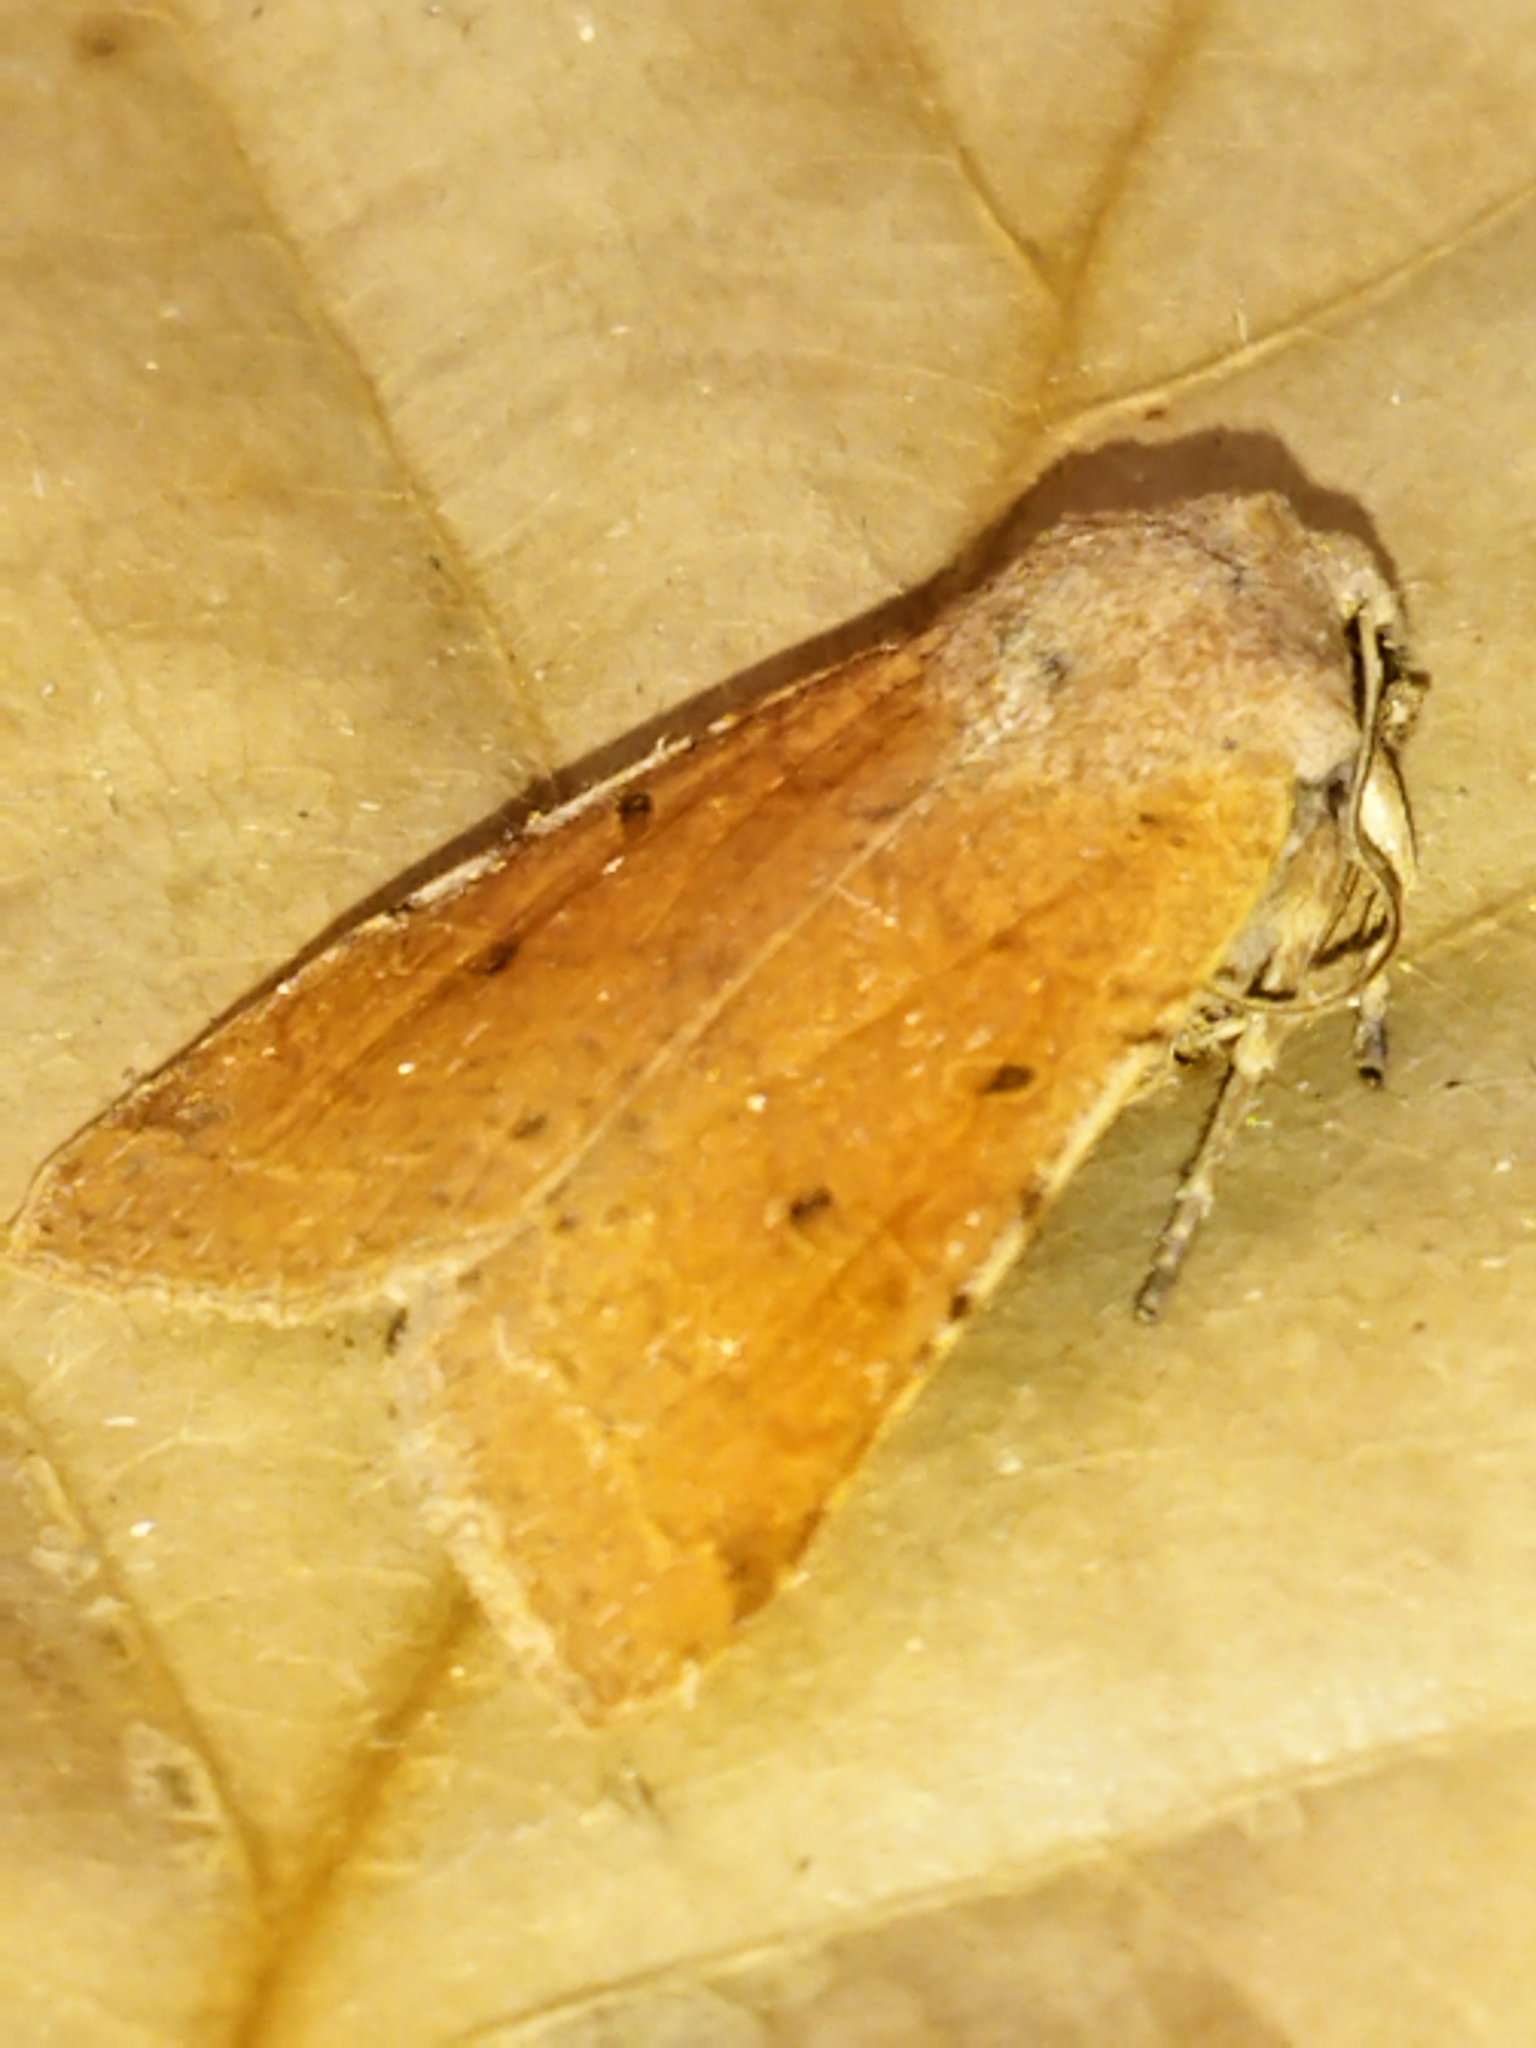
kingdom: Animalia
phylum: Arthropoda
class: Insecta
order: Lepidoptera
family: Noctuidae
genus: Agrochola
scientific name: Agrochola lychnidis
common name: Beaded chestnut
